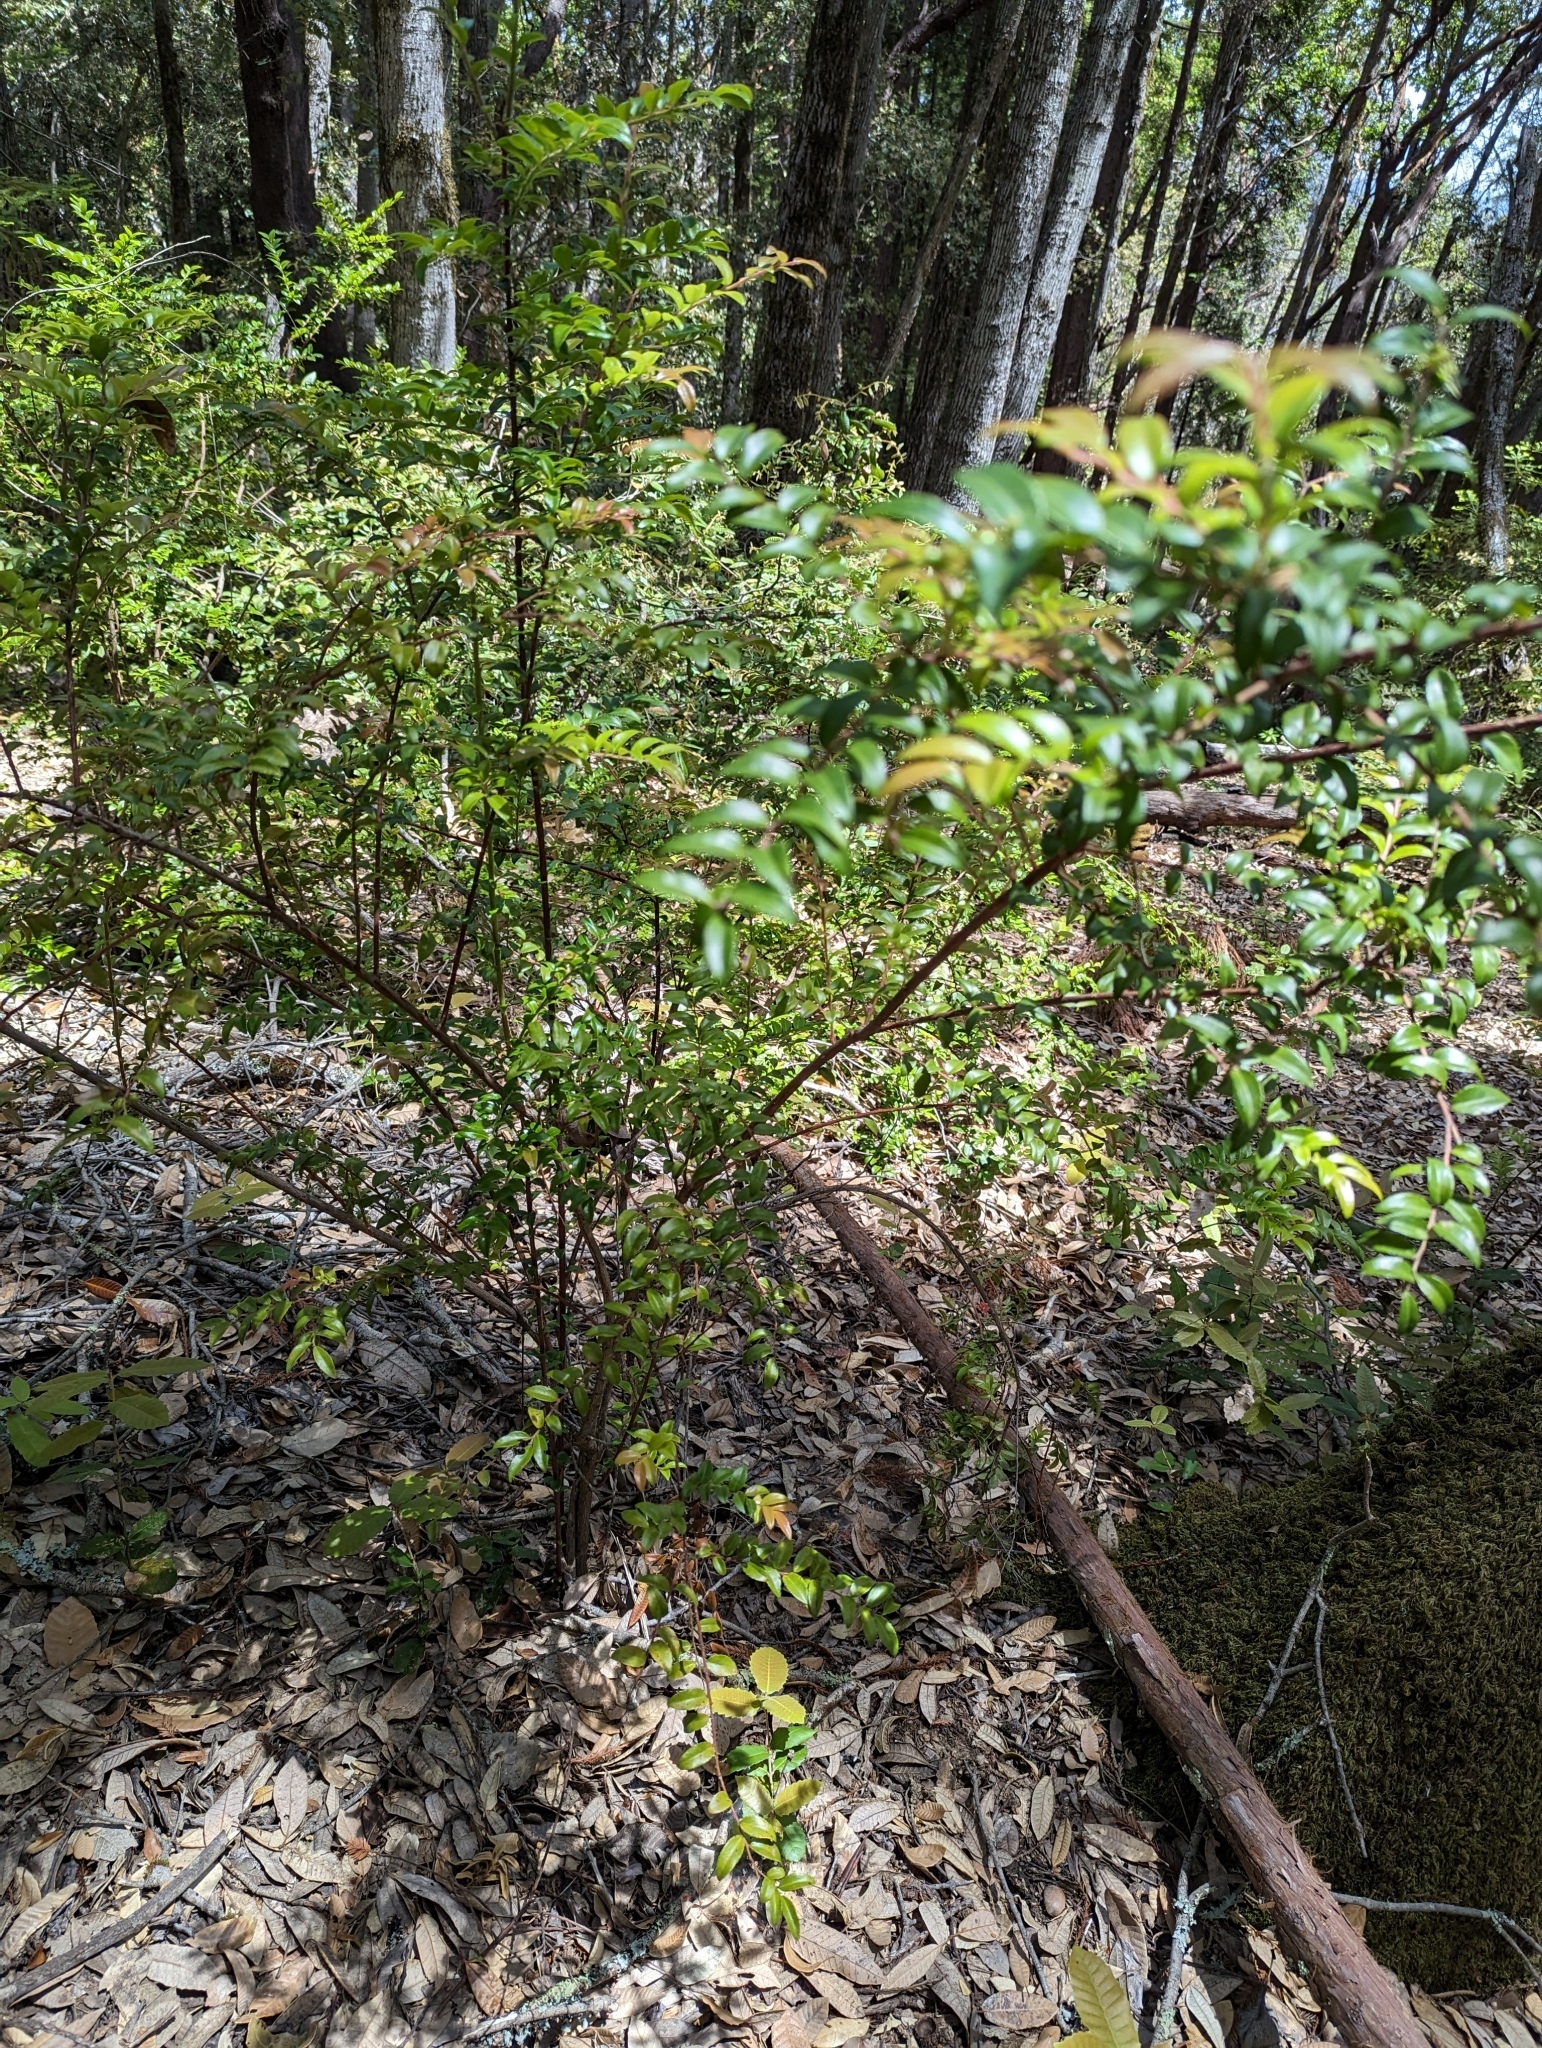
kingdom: Plantae
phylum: Tracheophyta
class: Magnoliopsida
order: Ericales
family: Ericaceae
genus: Vaccinium
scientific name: Vaccinium ovatum
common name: California-huckleberry
